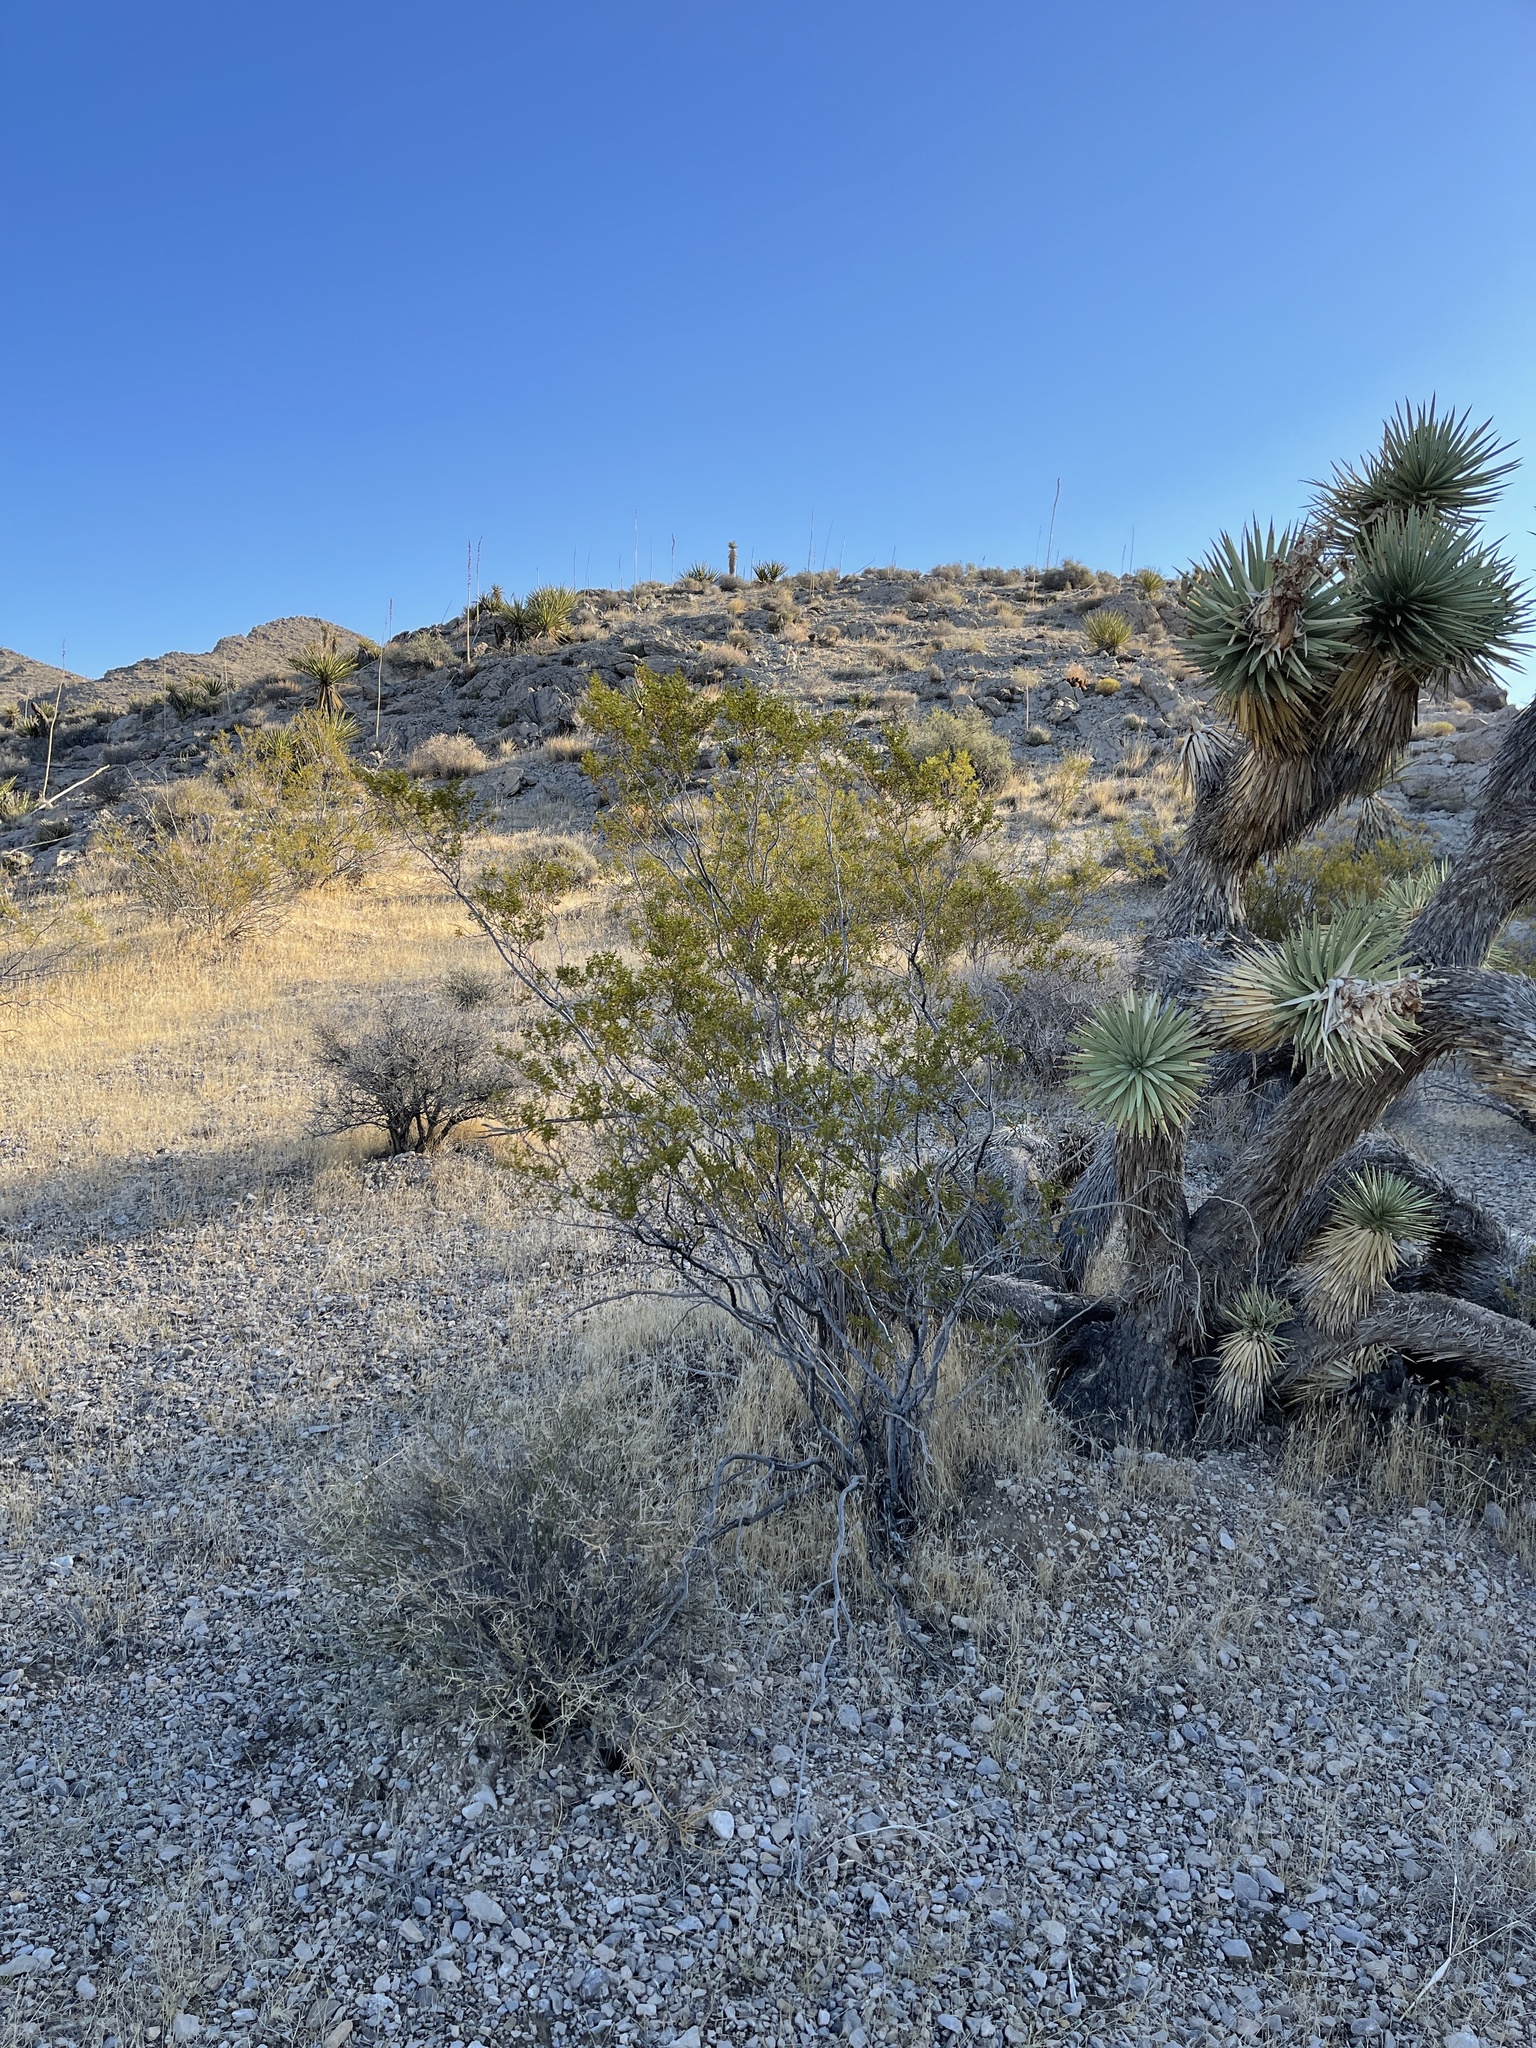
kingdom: Plantae
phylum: Tracheophyta
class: Magnoliopsida
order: Zygophyllales
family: Zygophyllaceae
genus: Larrea
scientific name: Larrea tridentata
